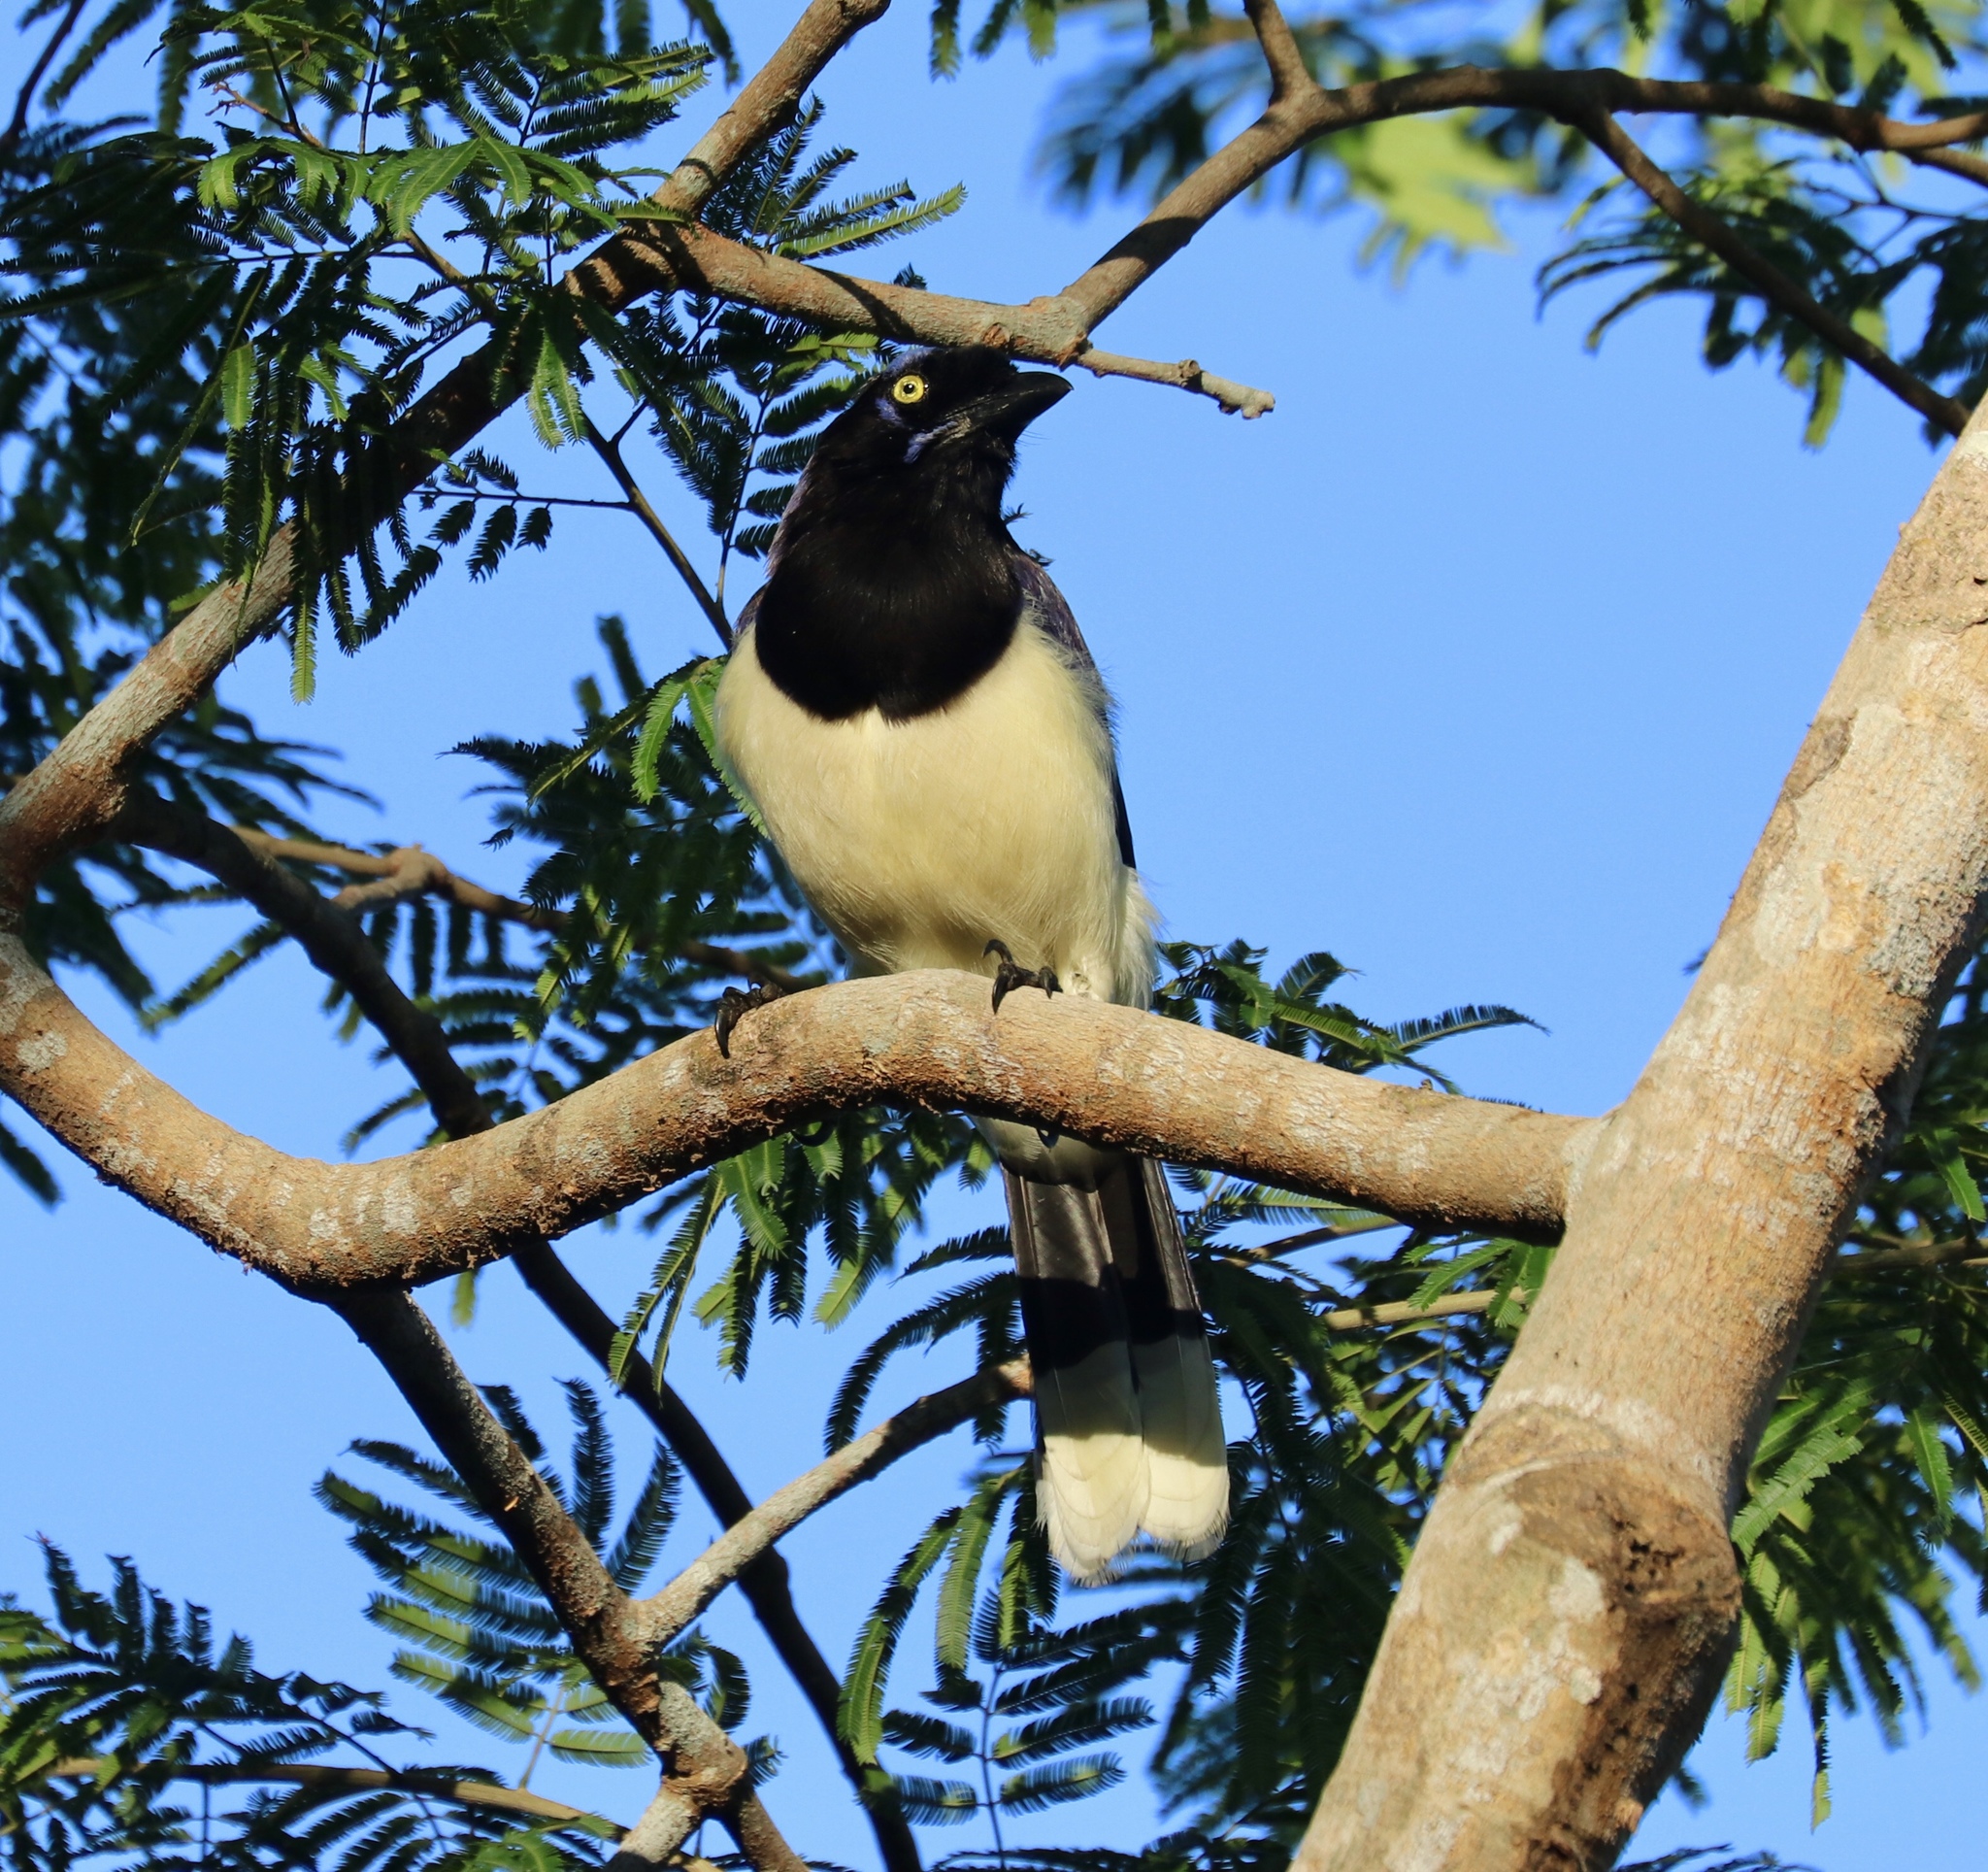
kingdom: Animalia
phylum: Chordata
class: Aves
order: Passeriformes
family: Corvidae
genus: Cyanocorax
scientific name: Cyanocorax affinis
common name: Black-chested jay
